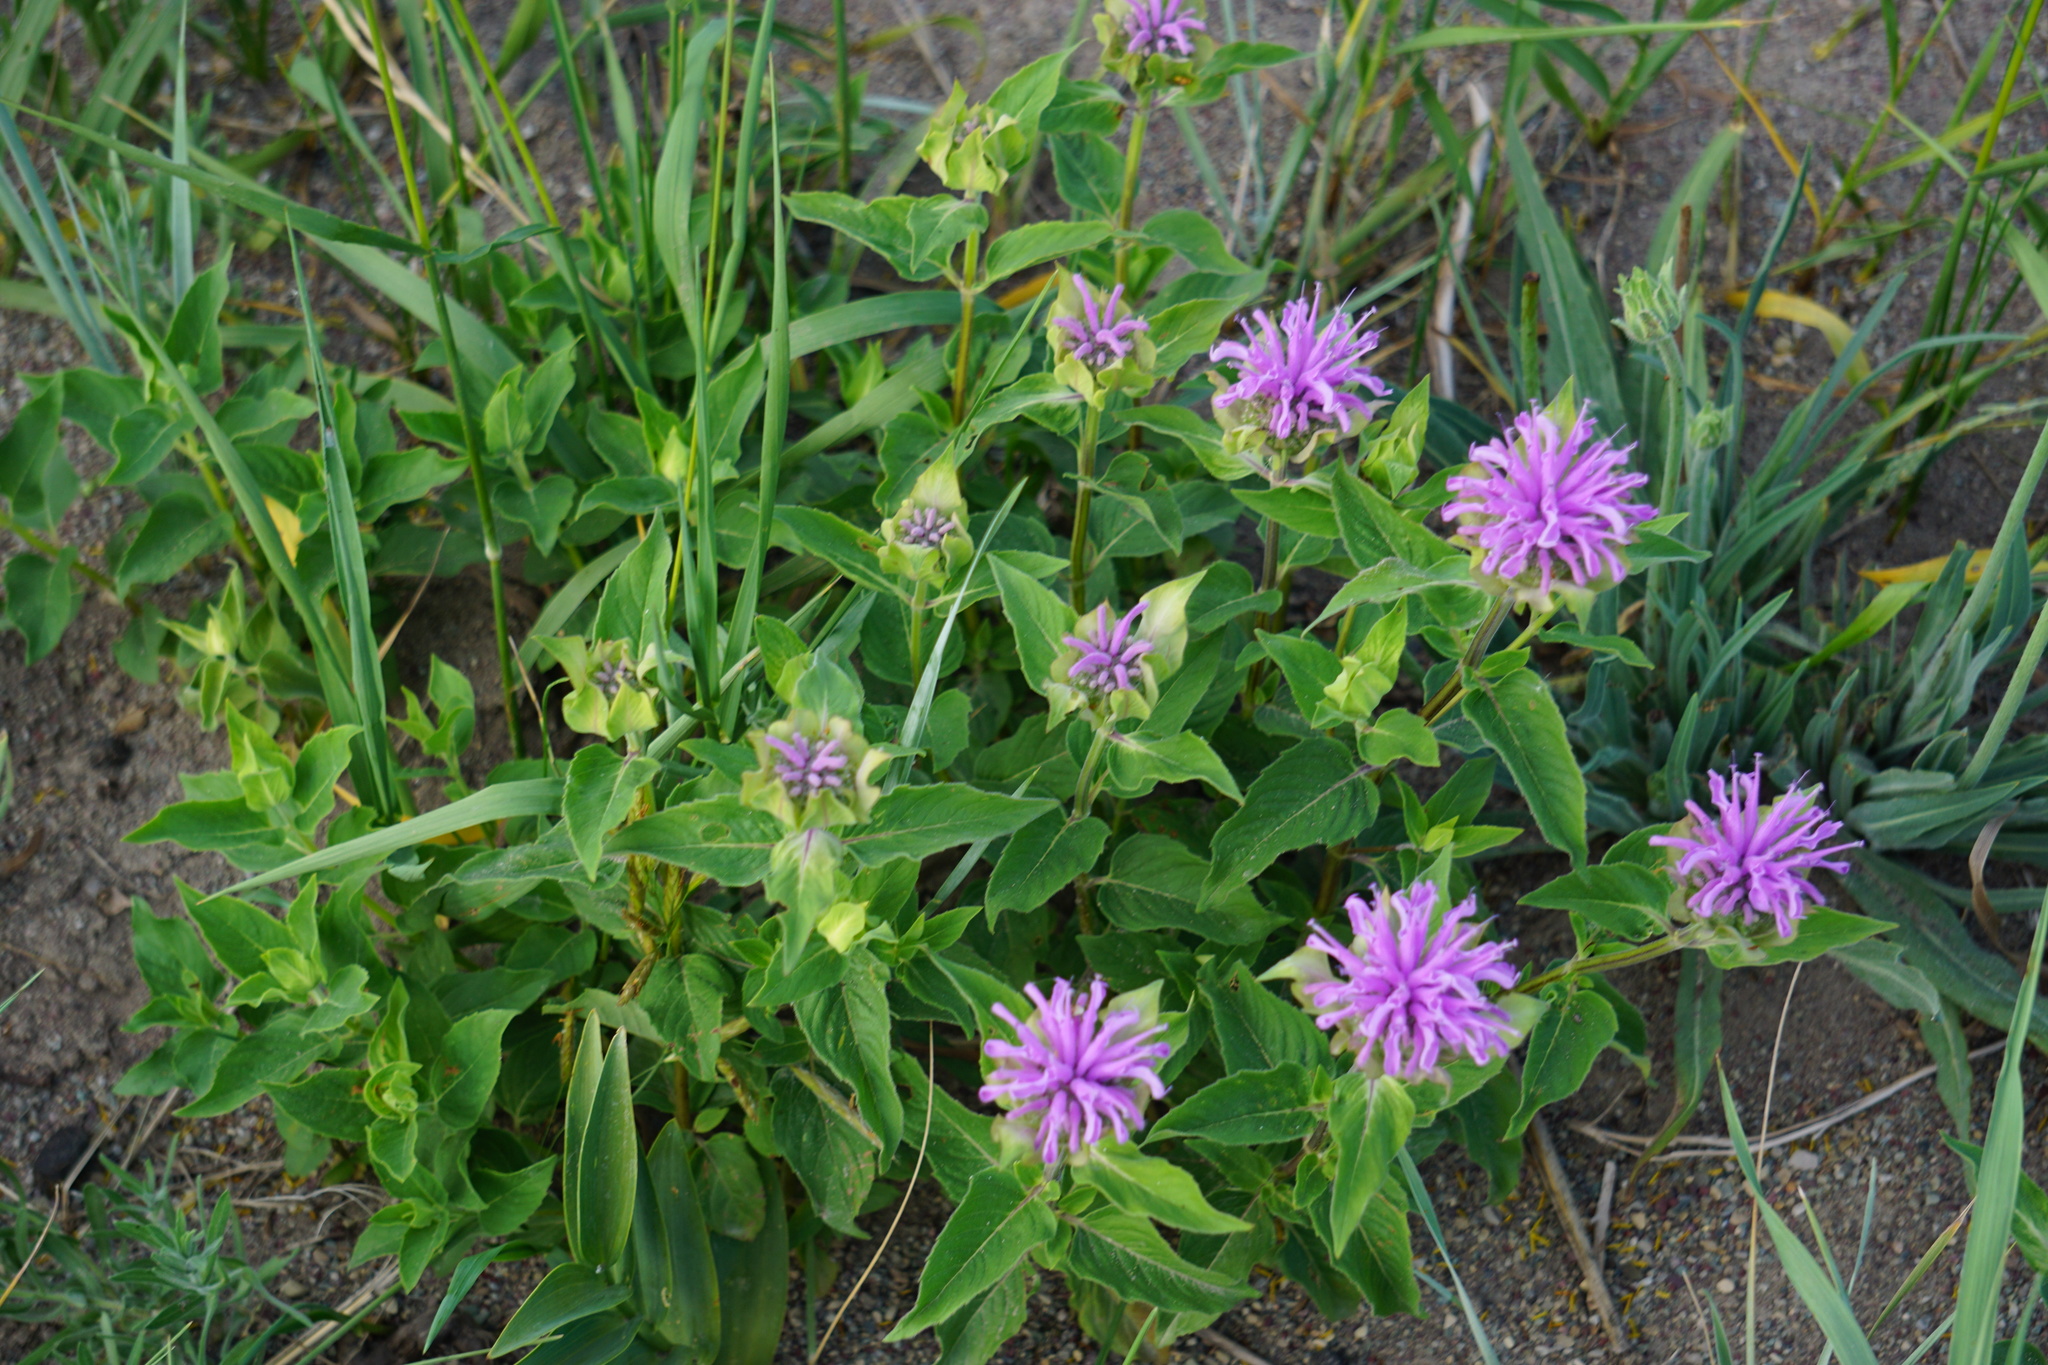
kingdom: Plantae
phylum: Tracheophyta
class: Magnoliopsida
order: Lamiales
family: Lamiaceae
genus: Monarda
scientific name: Monarda fistulosa
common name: Purple beebalm
